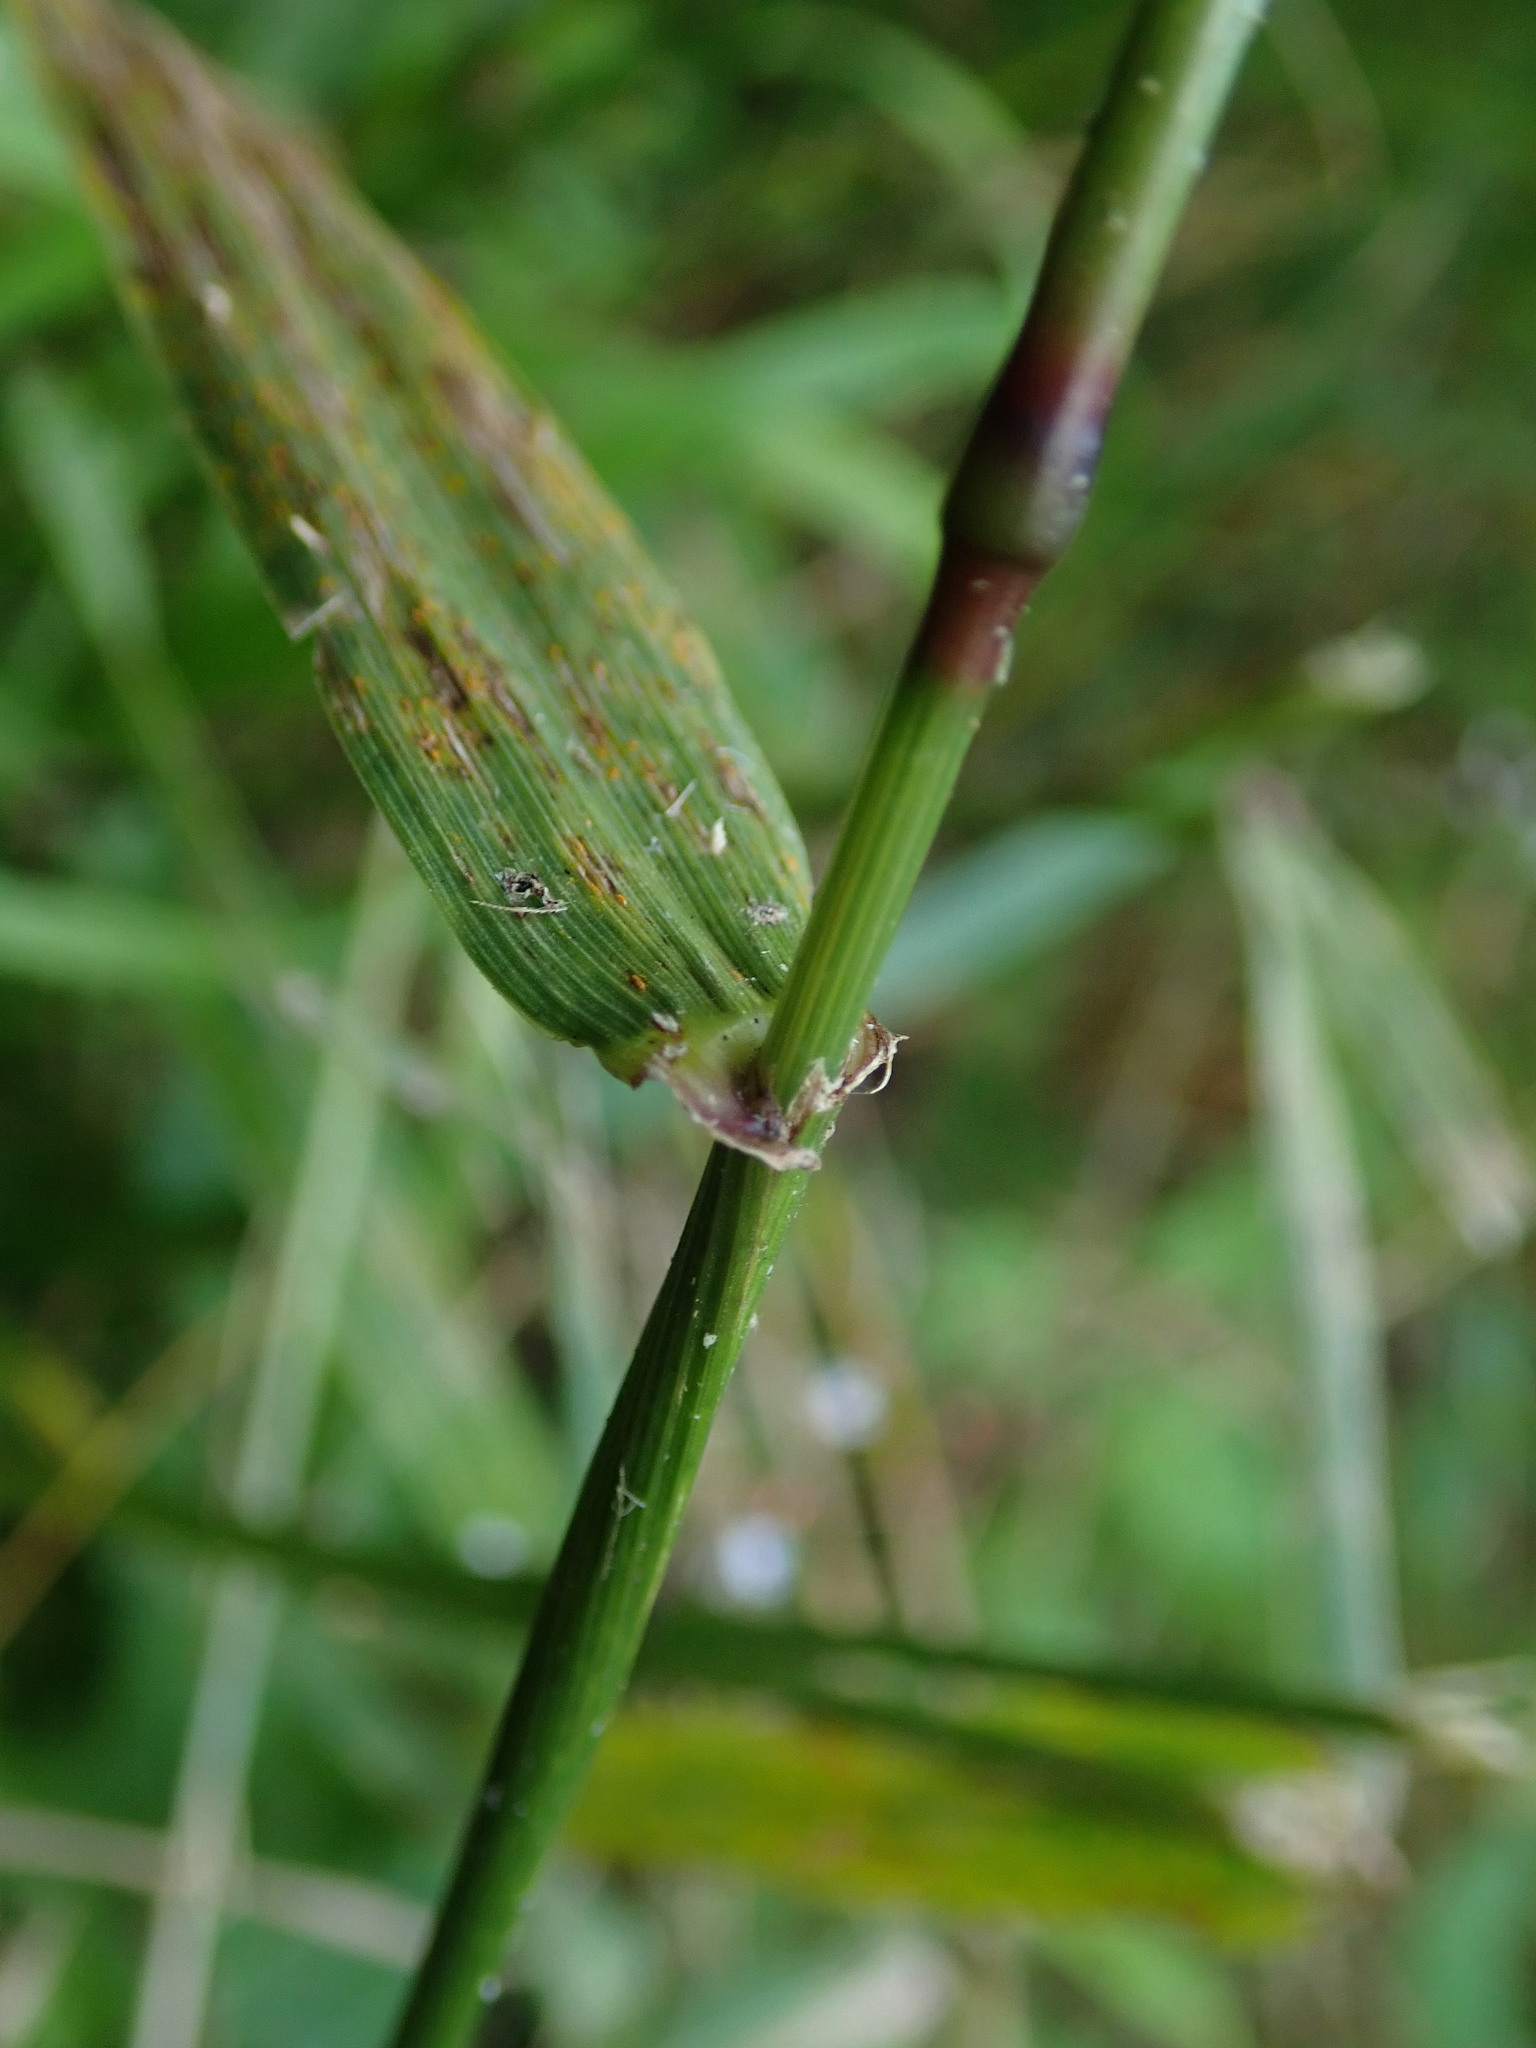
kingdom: Plantae
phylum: Tracheophyta
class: Liliopsida
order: Poales
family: Poaceae
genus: Lolium
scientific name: Lolium giganteum
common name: Giant fescue
